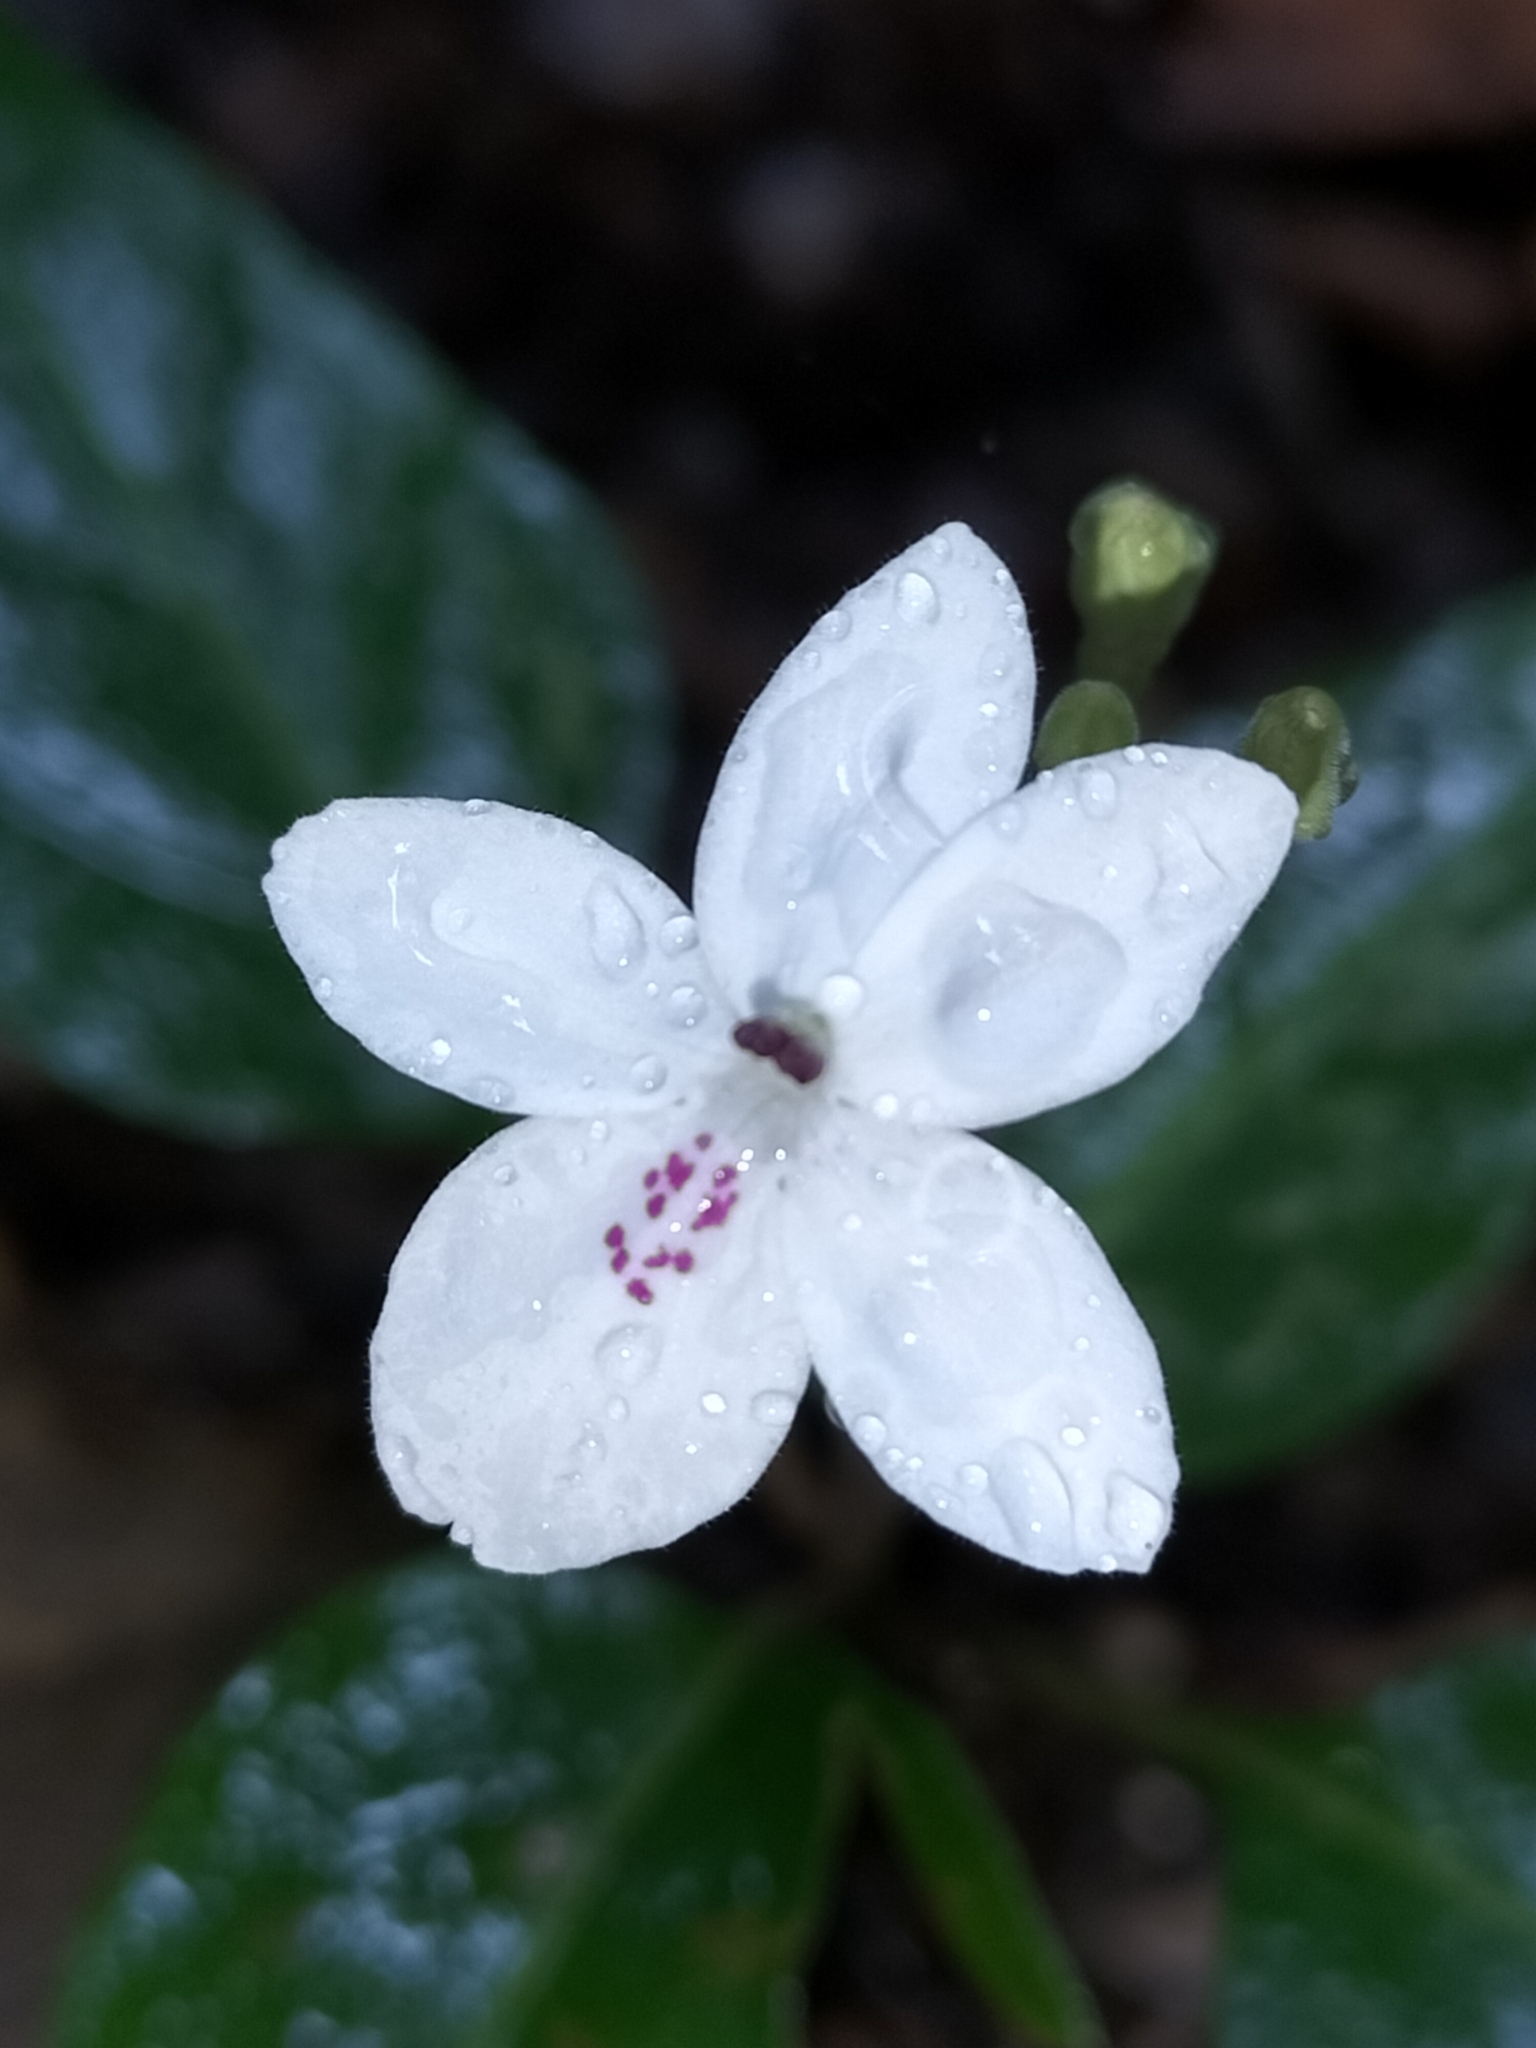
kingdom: Plantae
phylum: Tracheophyta
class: Magnoliopsida
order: Lamiales
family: Acanthaceae
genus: Pseuderanthemum
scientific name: Pseuderanthemum variabile
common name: Night and afternoon
